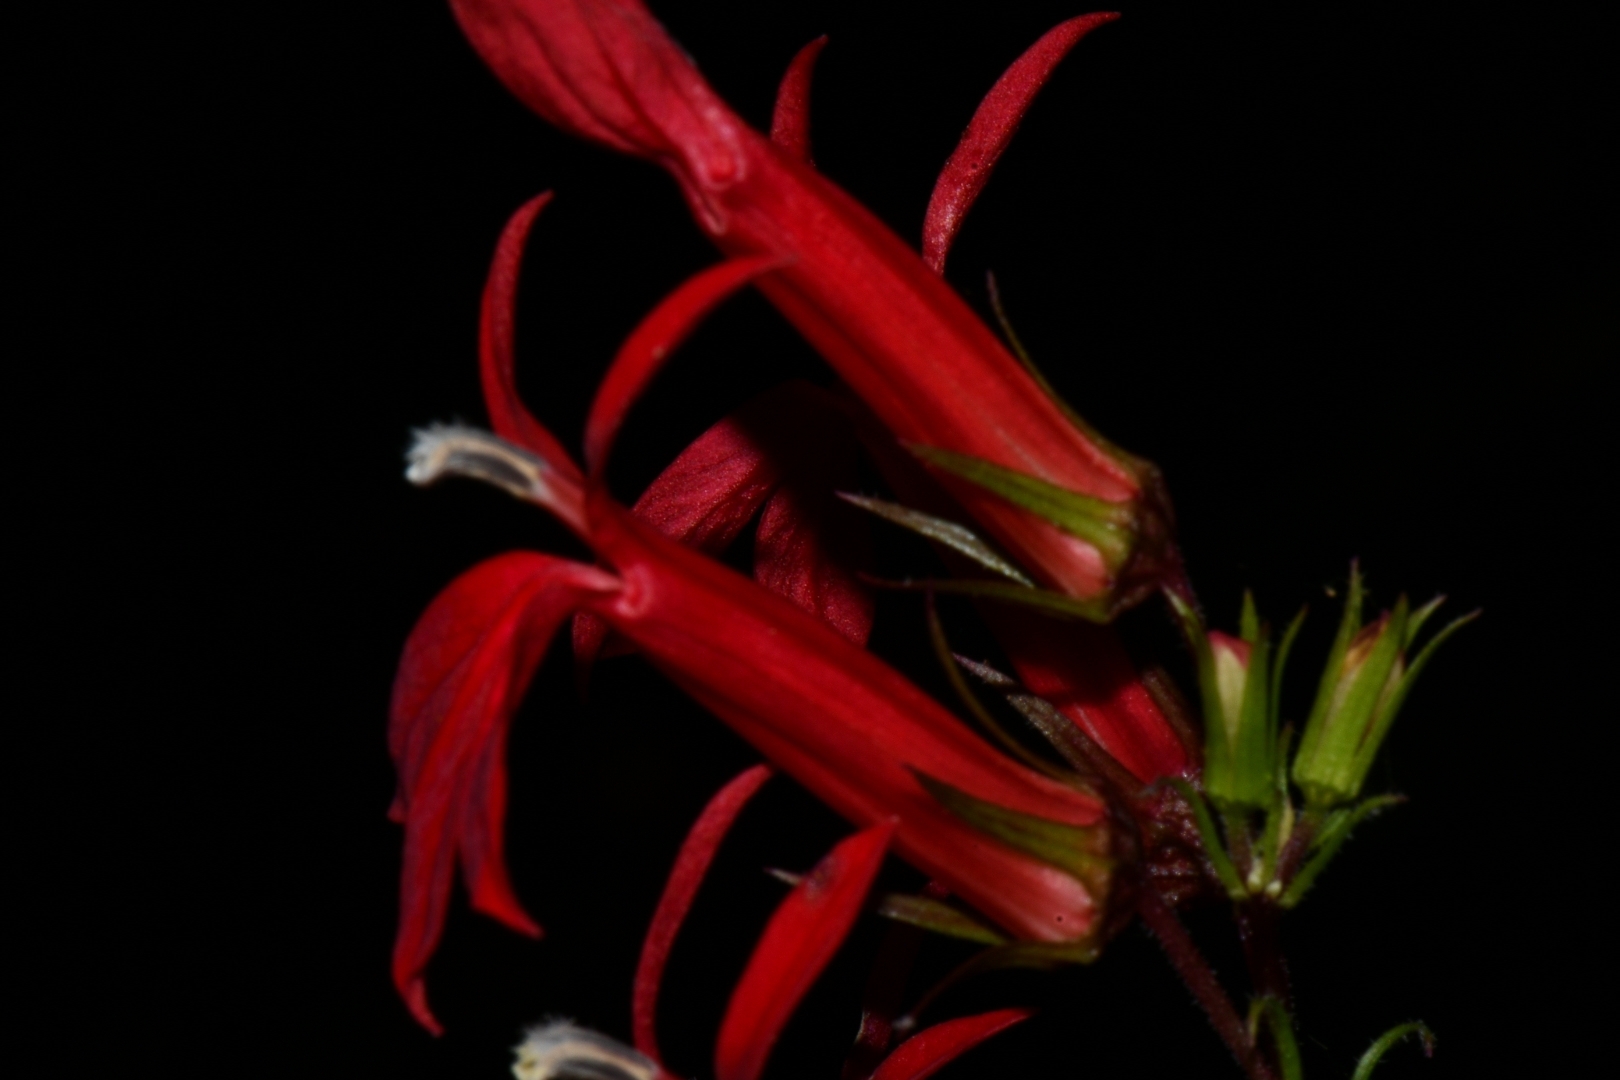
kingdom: Plantae
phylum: Tracheophyta
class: Magnoliopsida
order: Asterales
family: Campanulaceae
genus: Lobelia
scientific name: Lobelia cardinalis
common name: Cardinal flower
